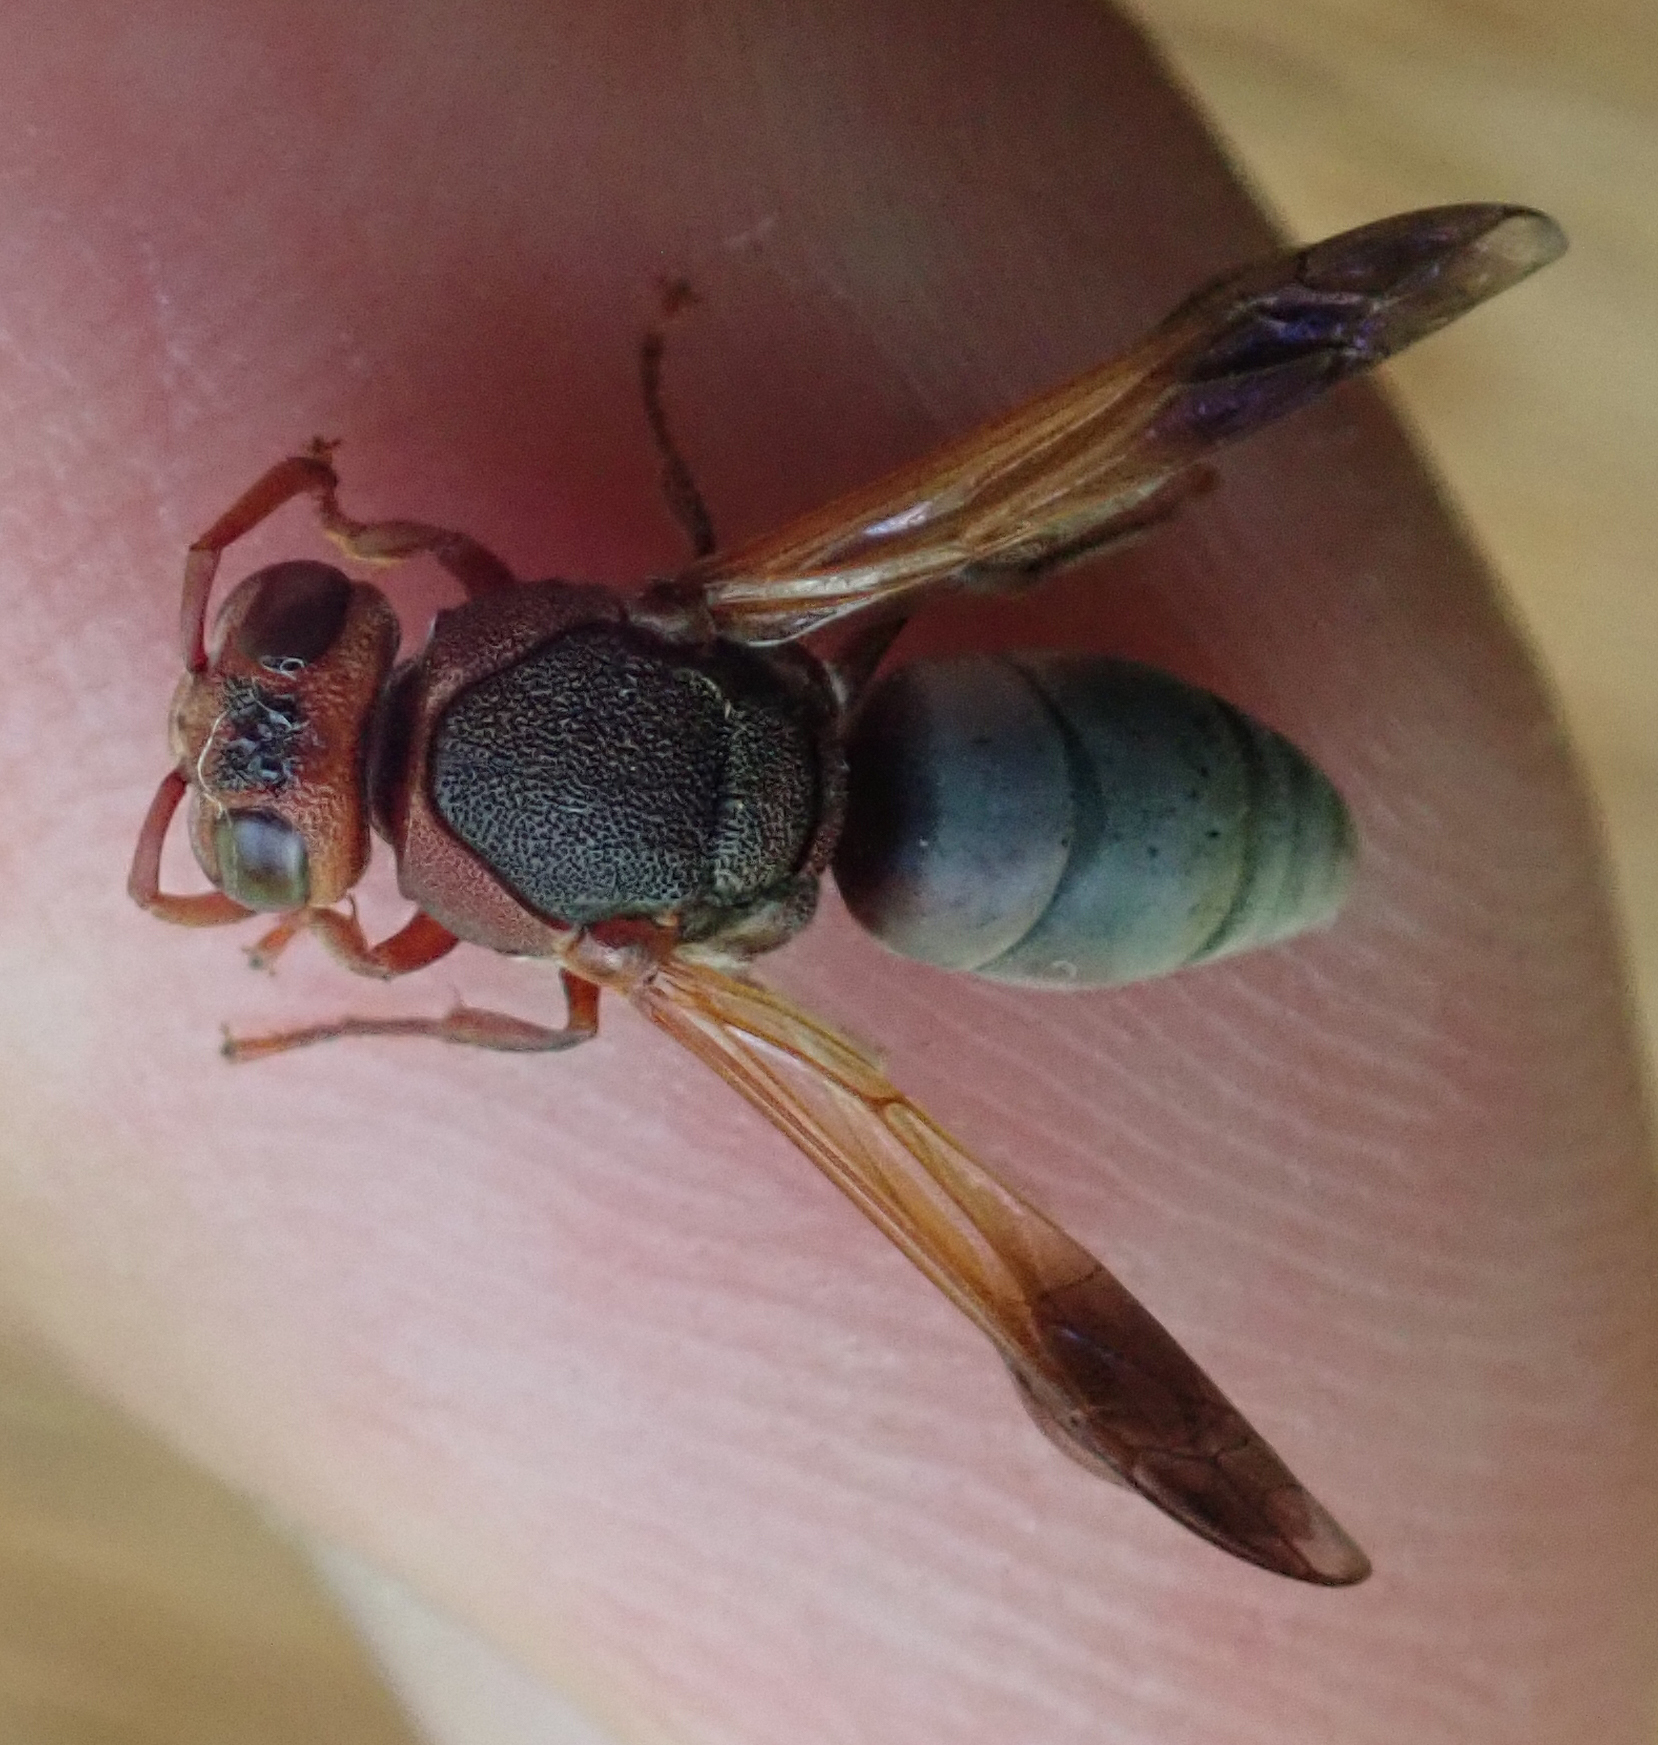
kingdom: Animalia
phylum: Arthropoda
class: Insecta
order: Hymenoptera
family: Eumenidae
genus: Proepipona
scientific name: Proepipona
